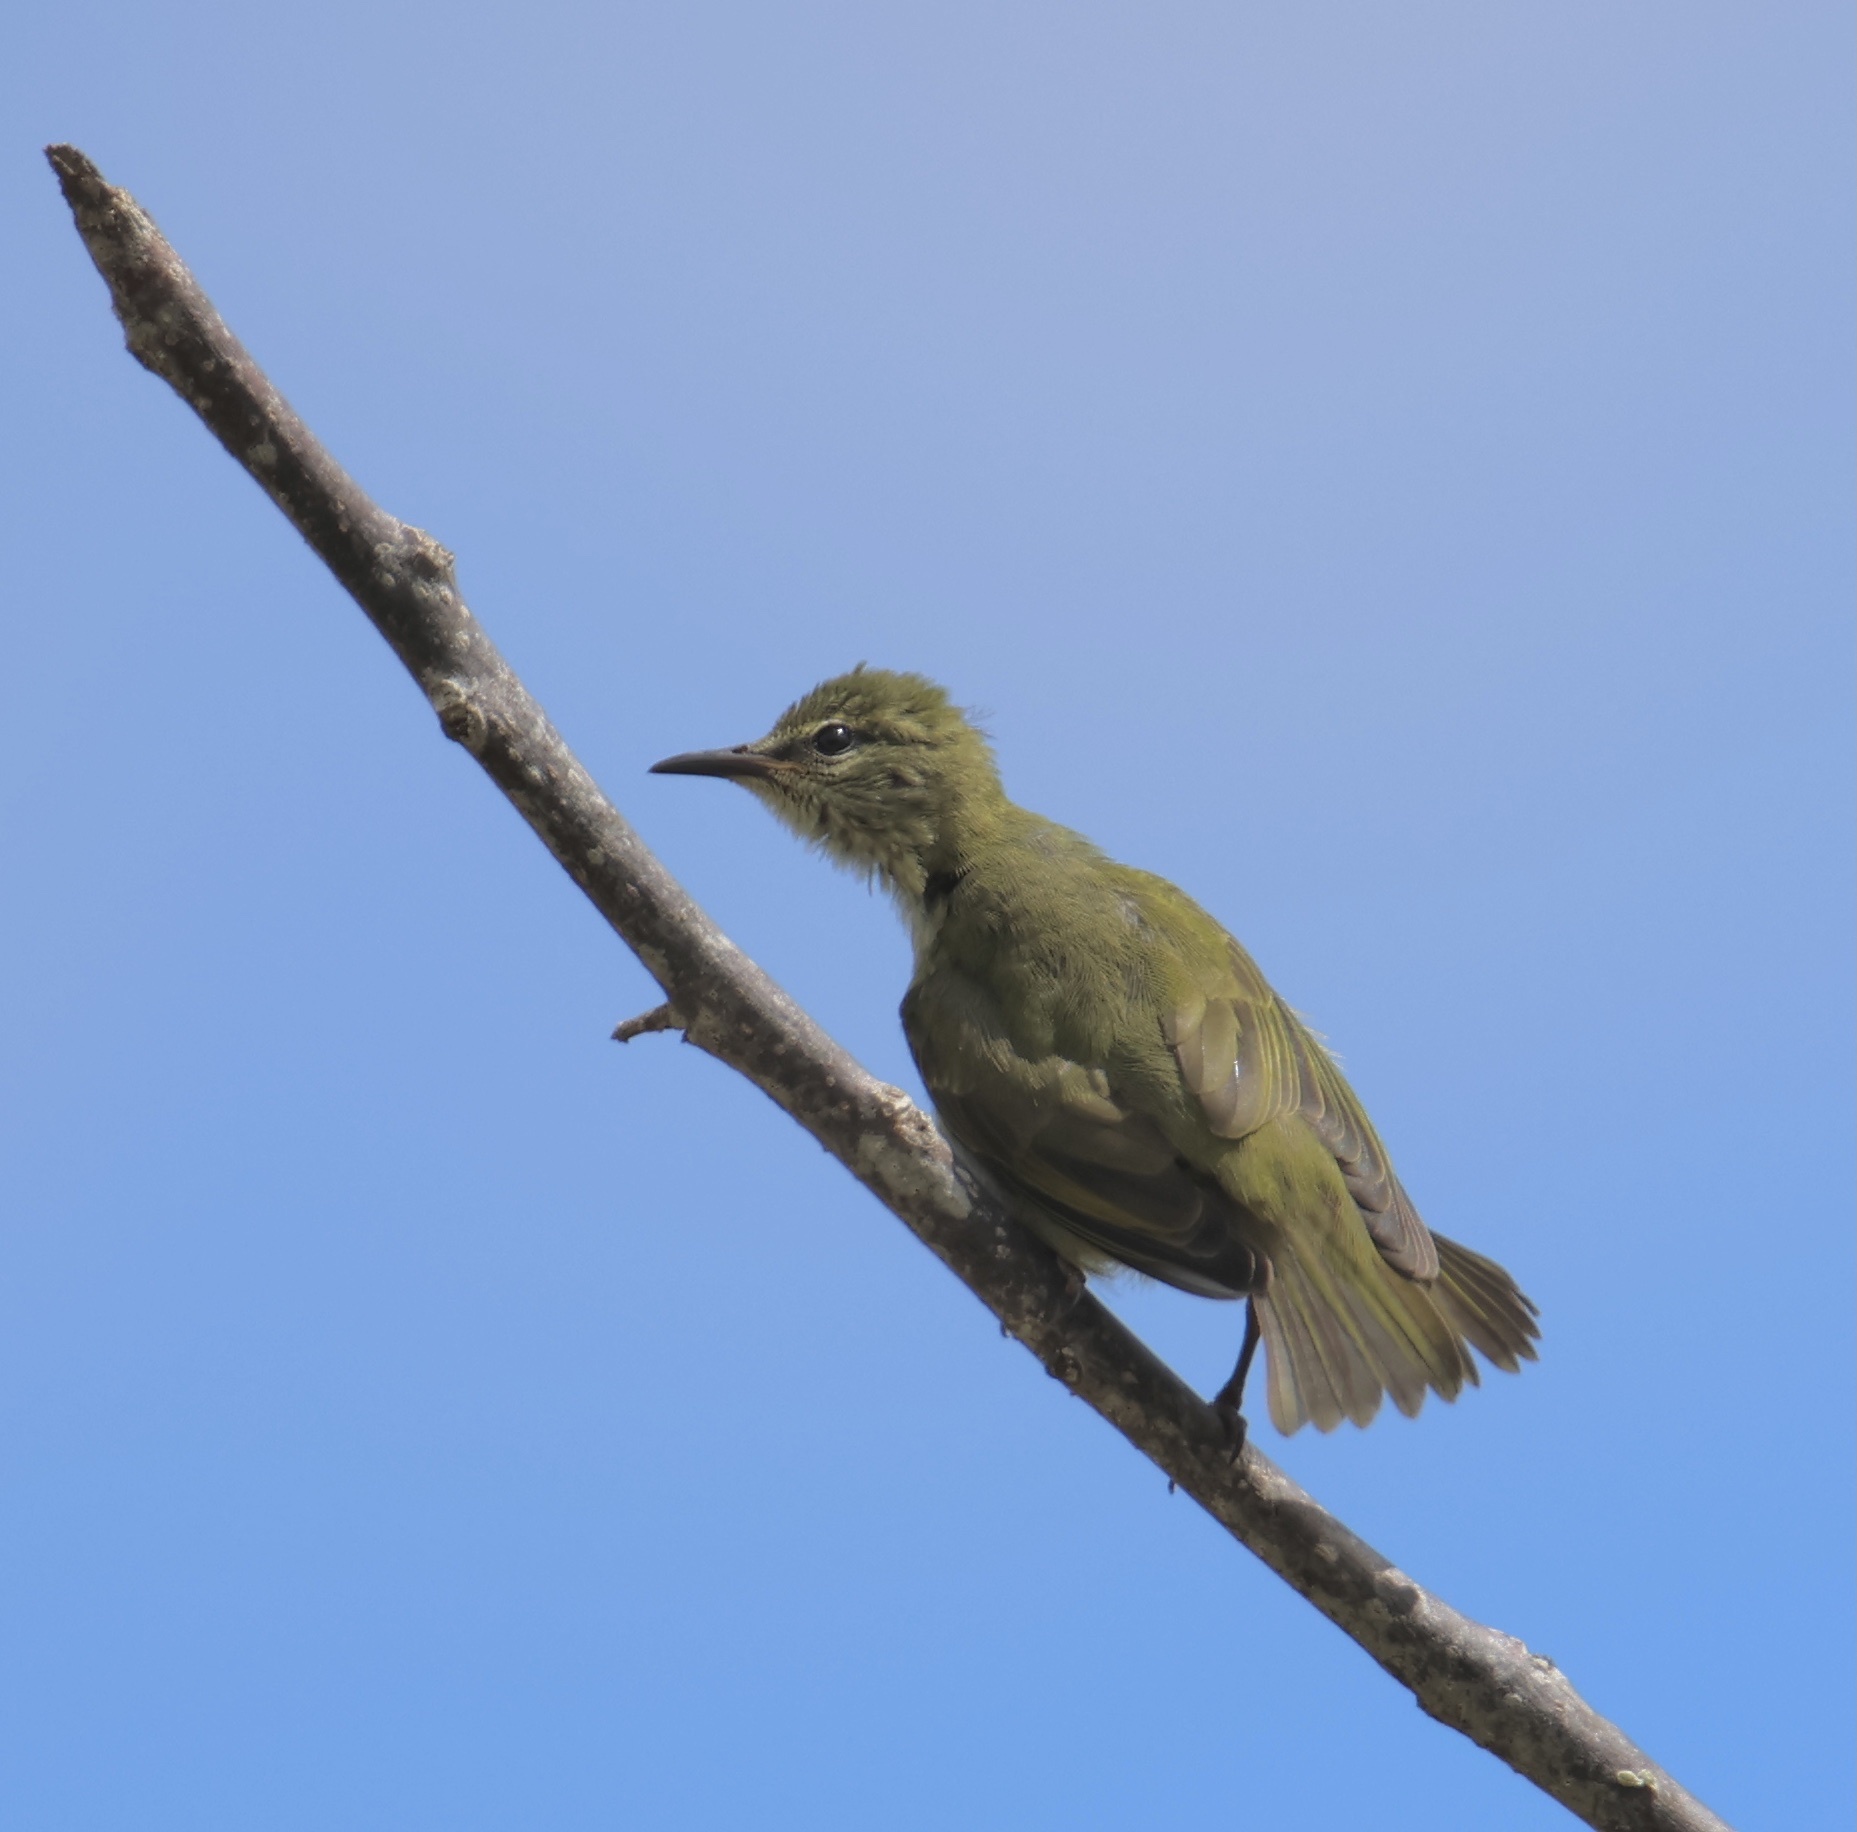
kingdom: Animalia
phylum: Chordata
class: Aves
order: Passeriformes
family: Thraupidae
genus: Cyanerpes
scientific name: Cyanerpes cyaneus
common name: Red-legged honeycreeper
